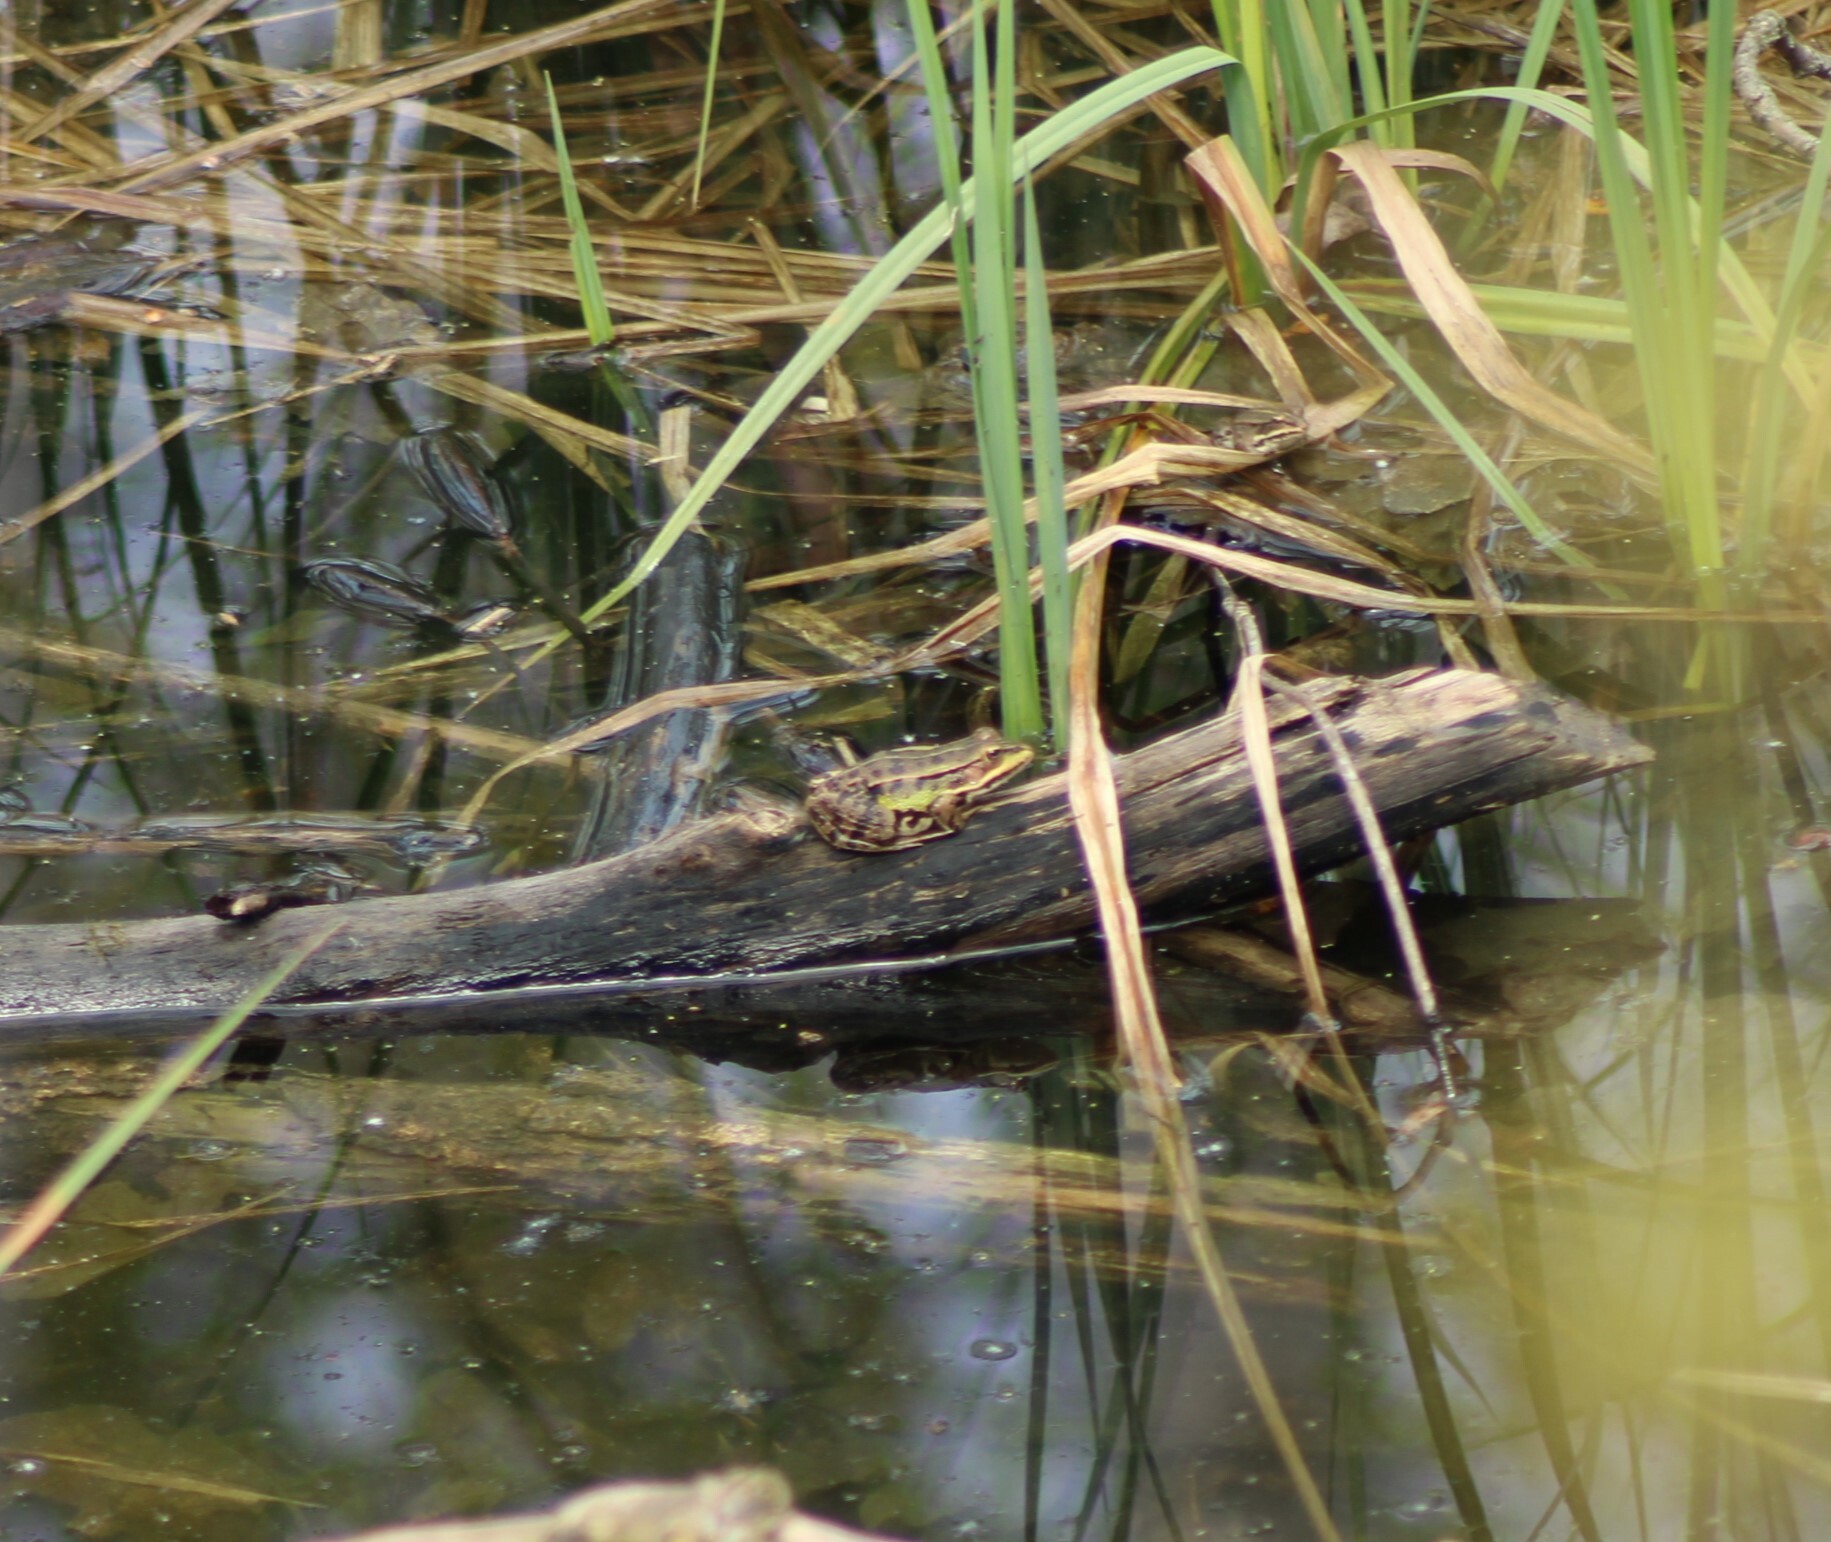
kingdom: Animalia
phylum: Chordata
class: Amphibia
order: Anura
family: Ranidae
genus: Pelophylax
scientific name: Pelophylax
